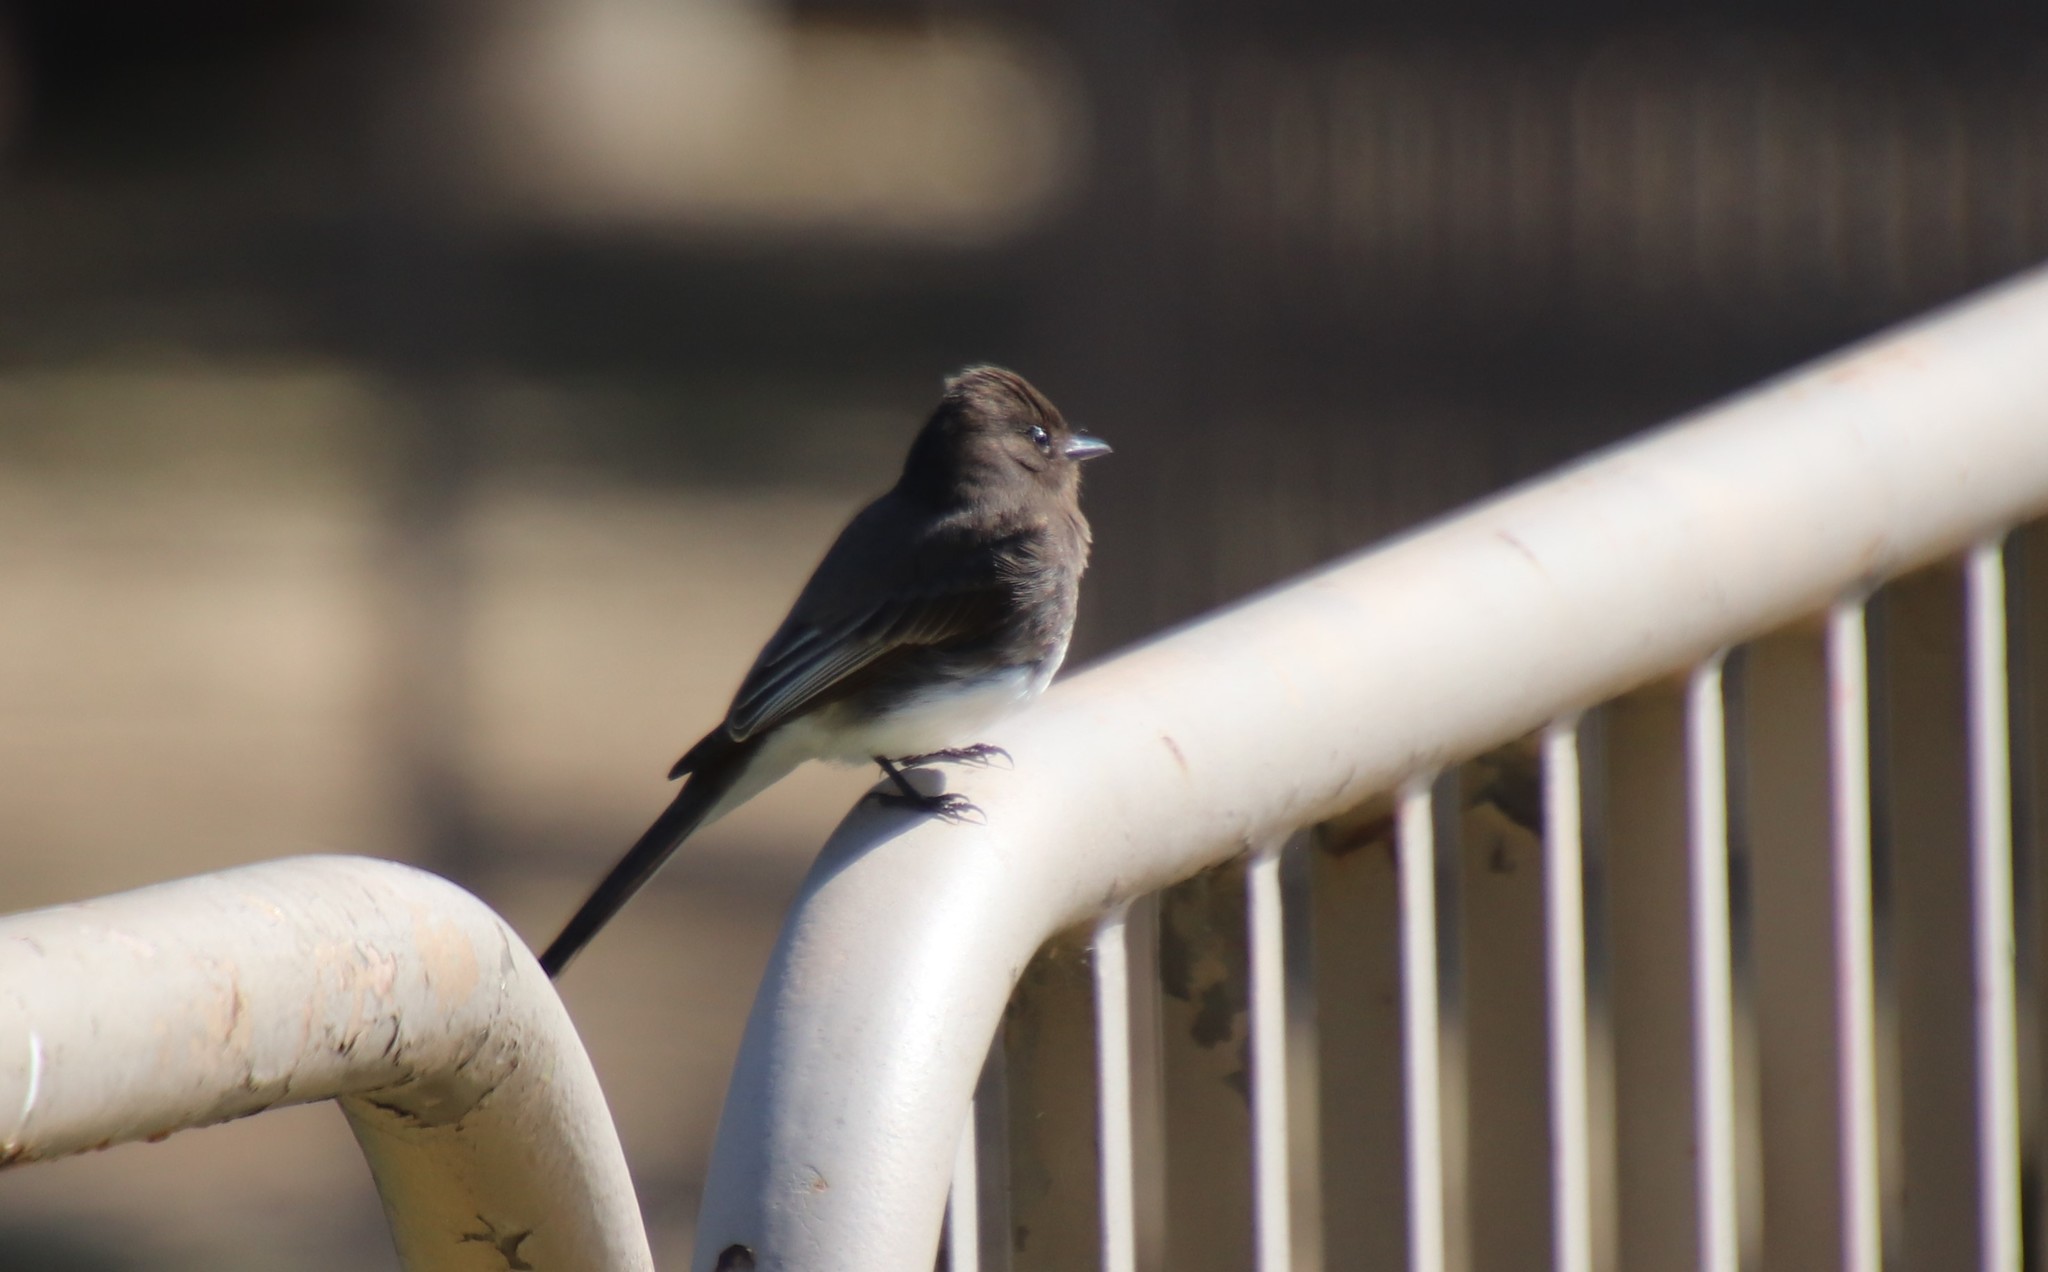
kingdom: Animalia
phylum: Chordata
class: Aves
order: Passeriformes
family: Tyrannidae
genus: Sayornis
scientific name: Sayornis nigricans
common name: Black phoebe
